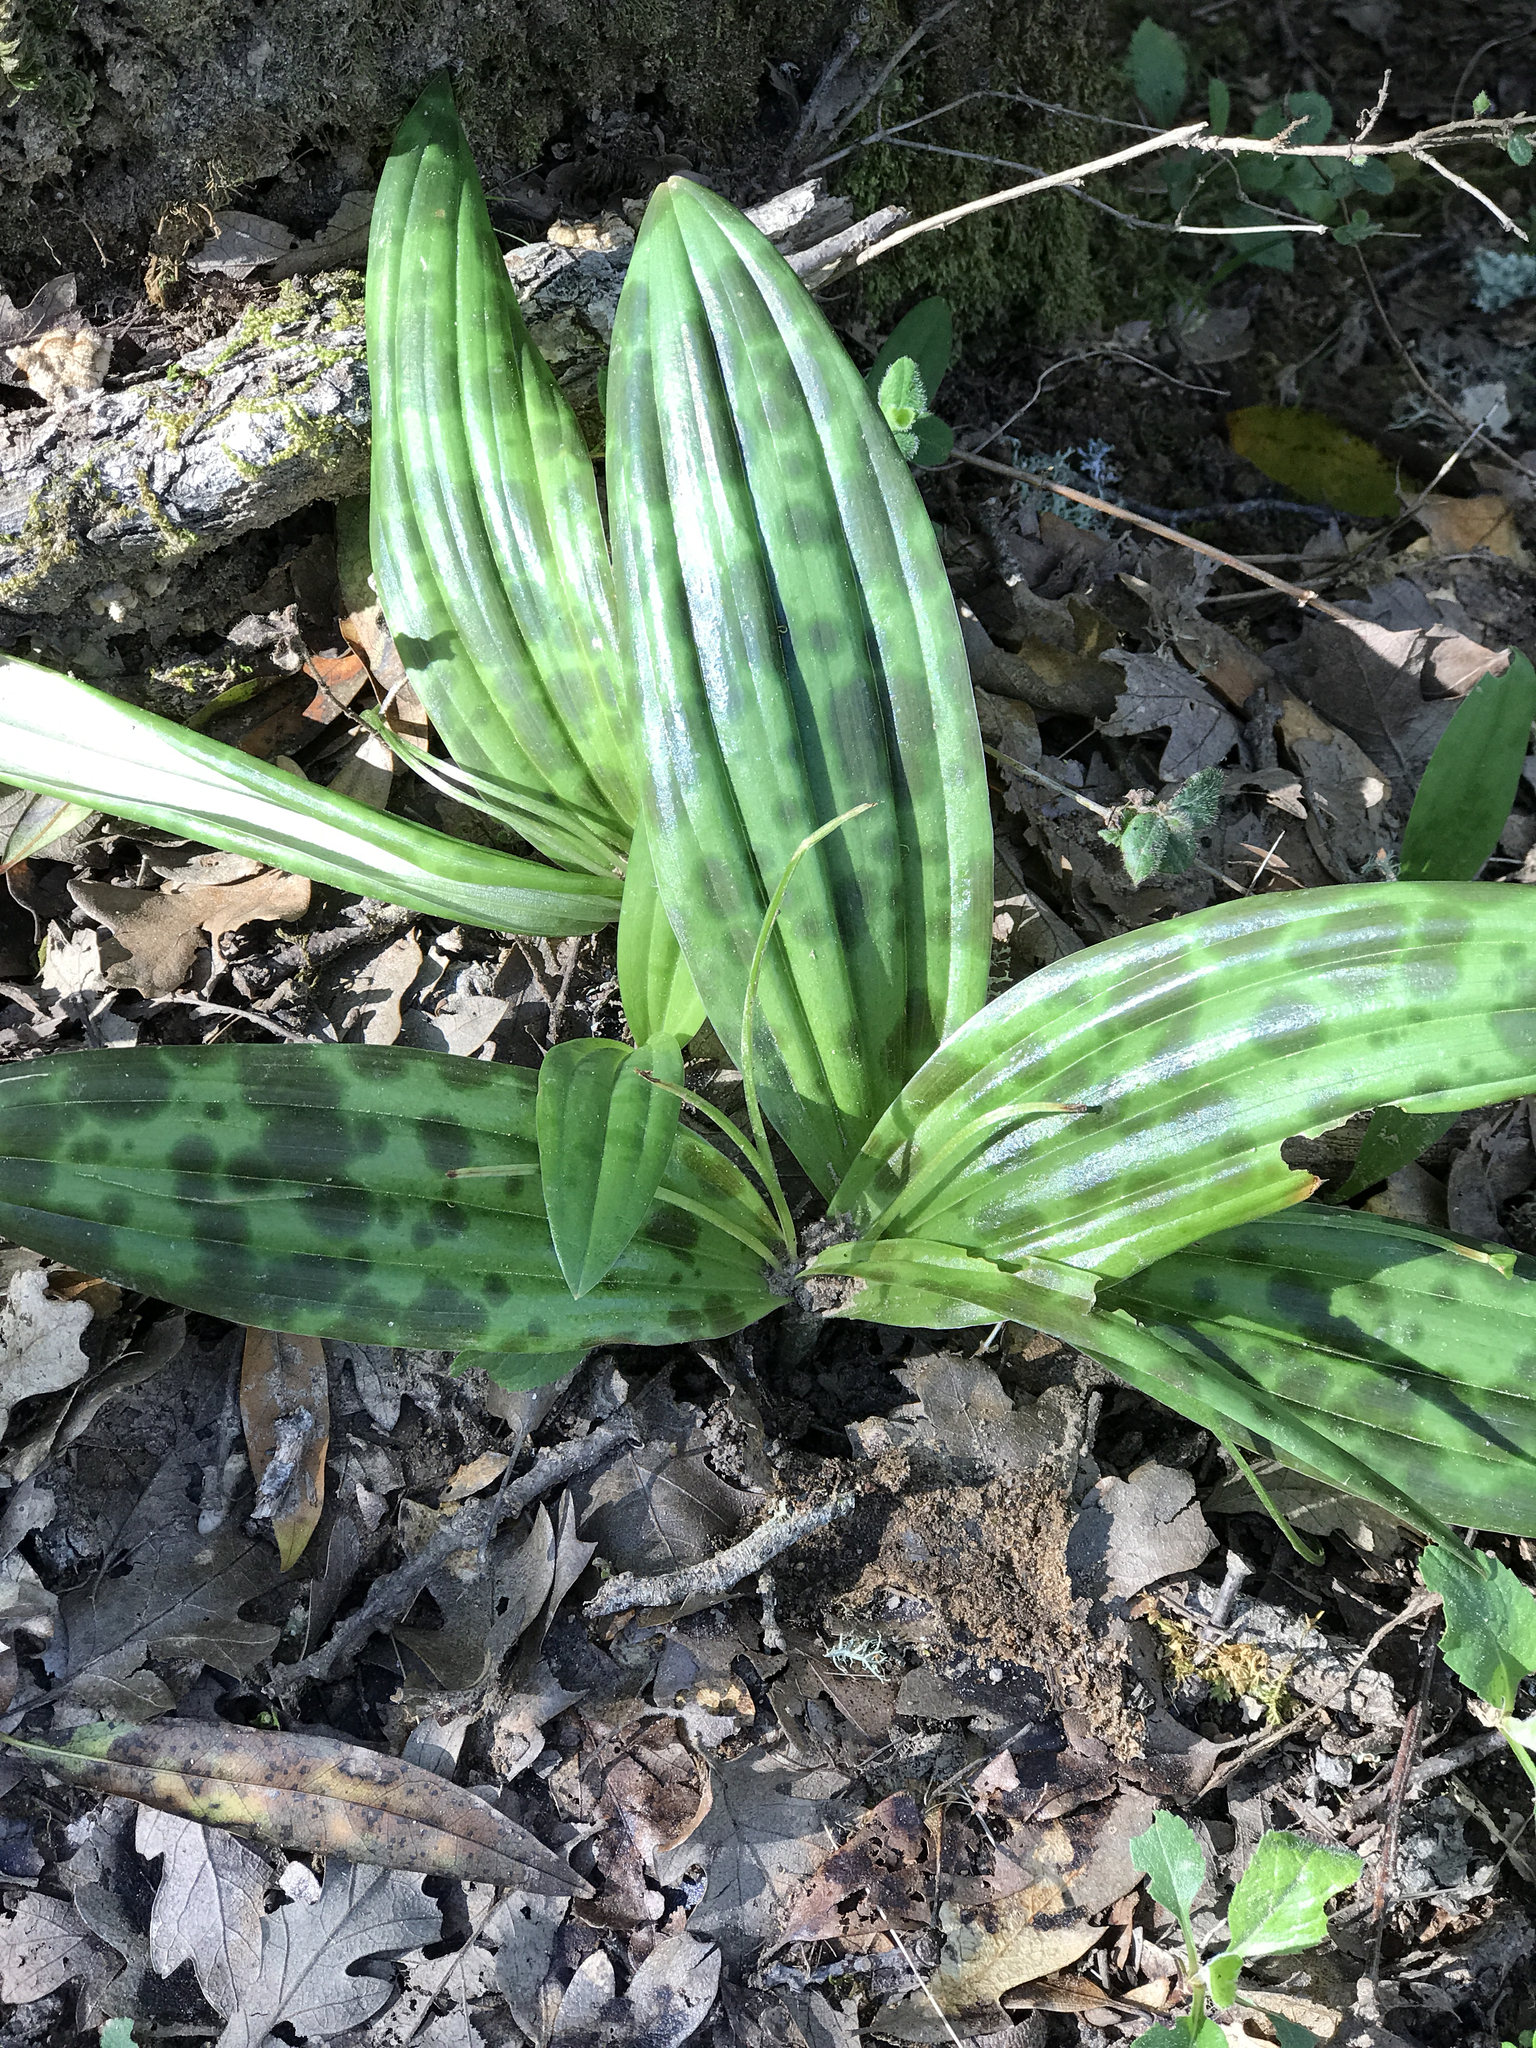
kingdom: Plantae
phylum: Tracheophyta
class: Liliopsida
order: Liliales
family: Liliaceae
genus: Scoliopus
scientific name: Scoliopus bigelovii
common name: Foetid adder's-tongue
